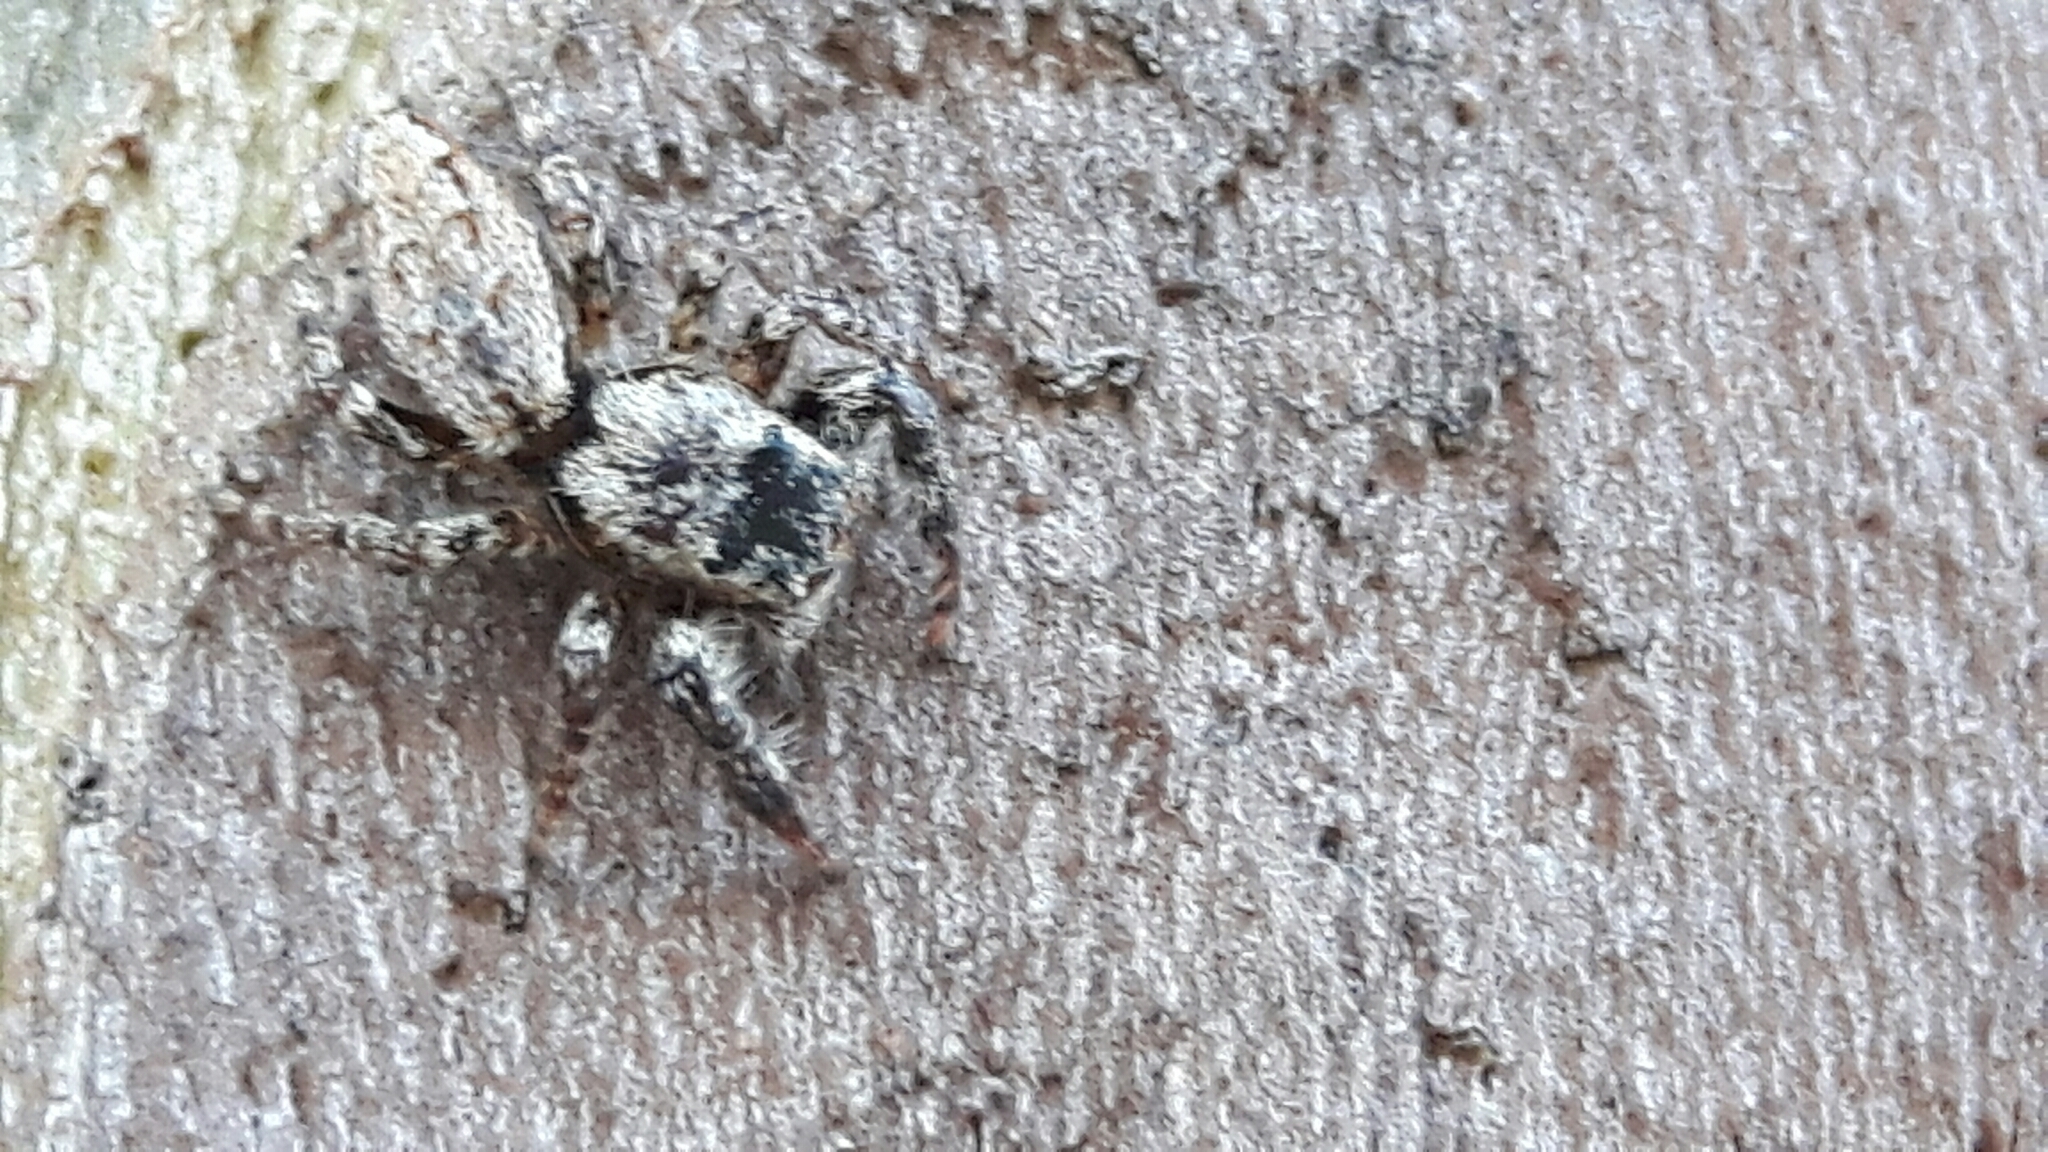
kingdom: Animalia
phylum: Arthropoda
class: Arachnida
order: Araneae
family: Salticidae
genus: Marpissa
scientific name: Marpissa muscosa
